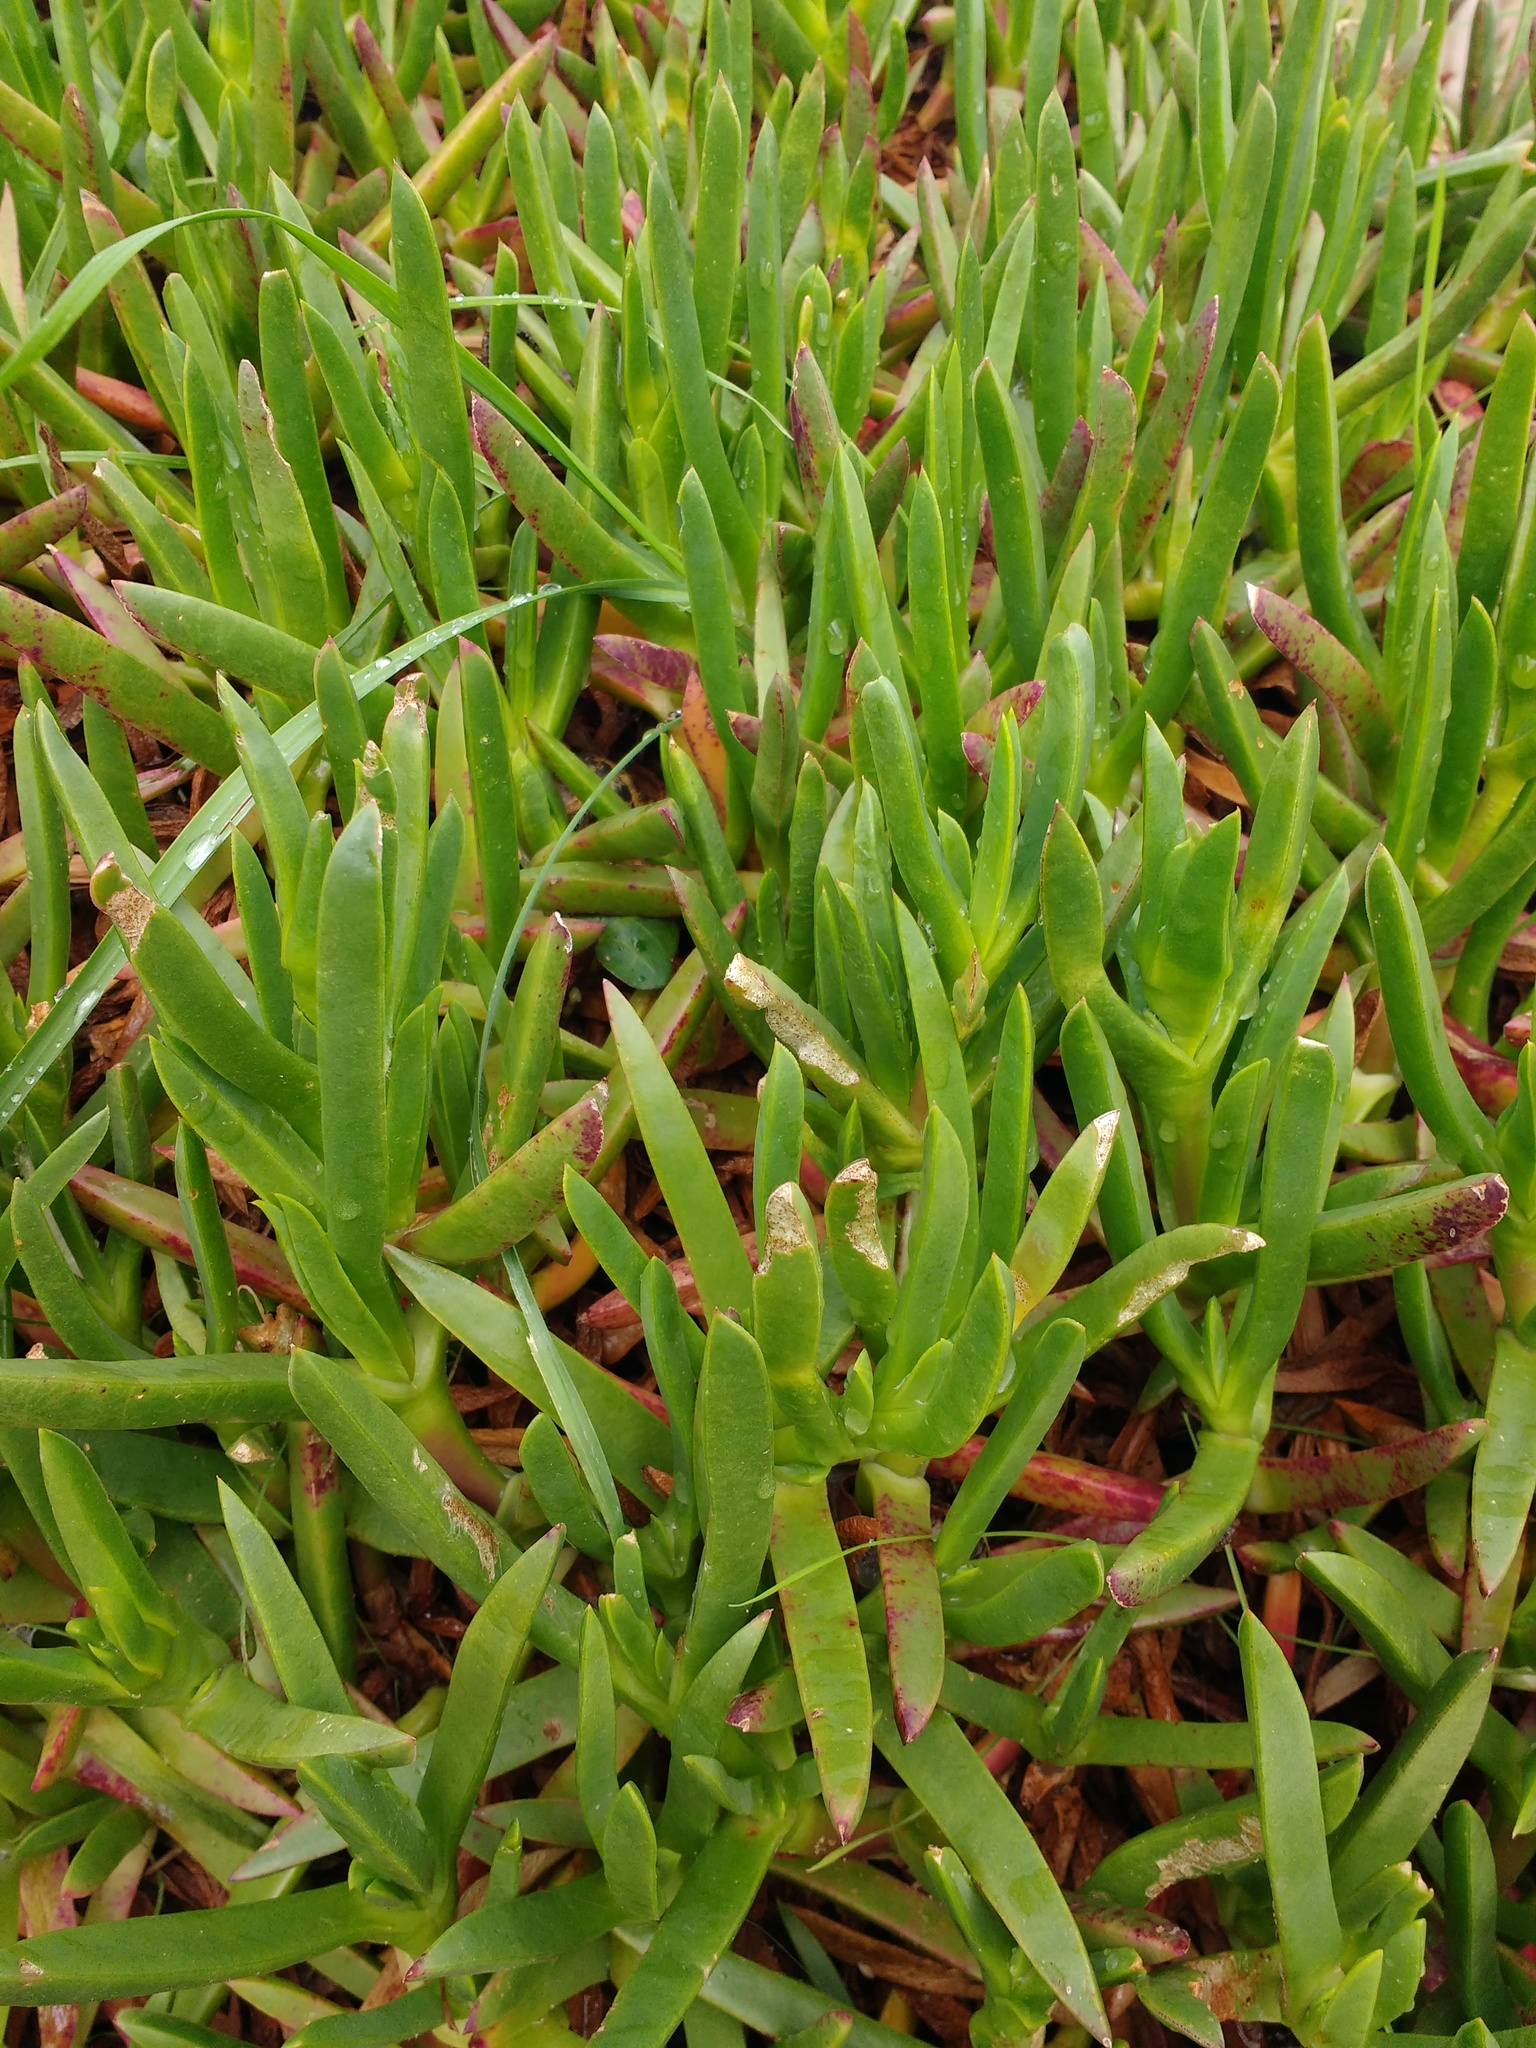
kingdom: Plantae
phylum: Tracheophyta
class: Magnoliopsida
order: Caryophyllales
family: Aizoaceae
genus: Carpobrotus
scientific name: Carpobrotus edulis
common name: Hottentot-fig
